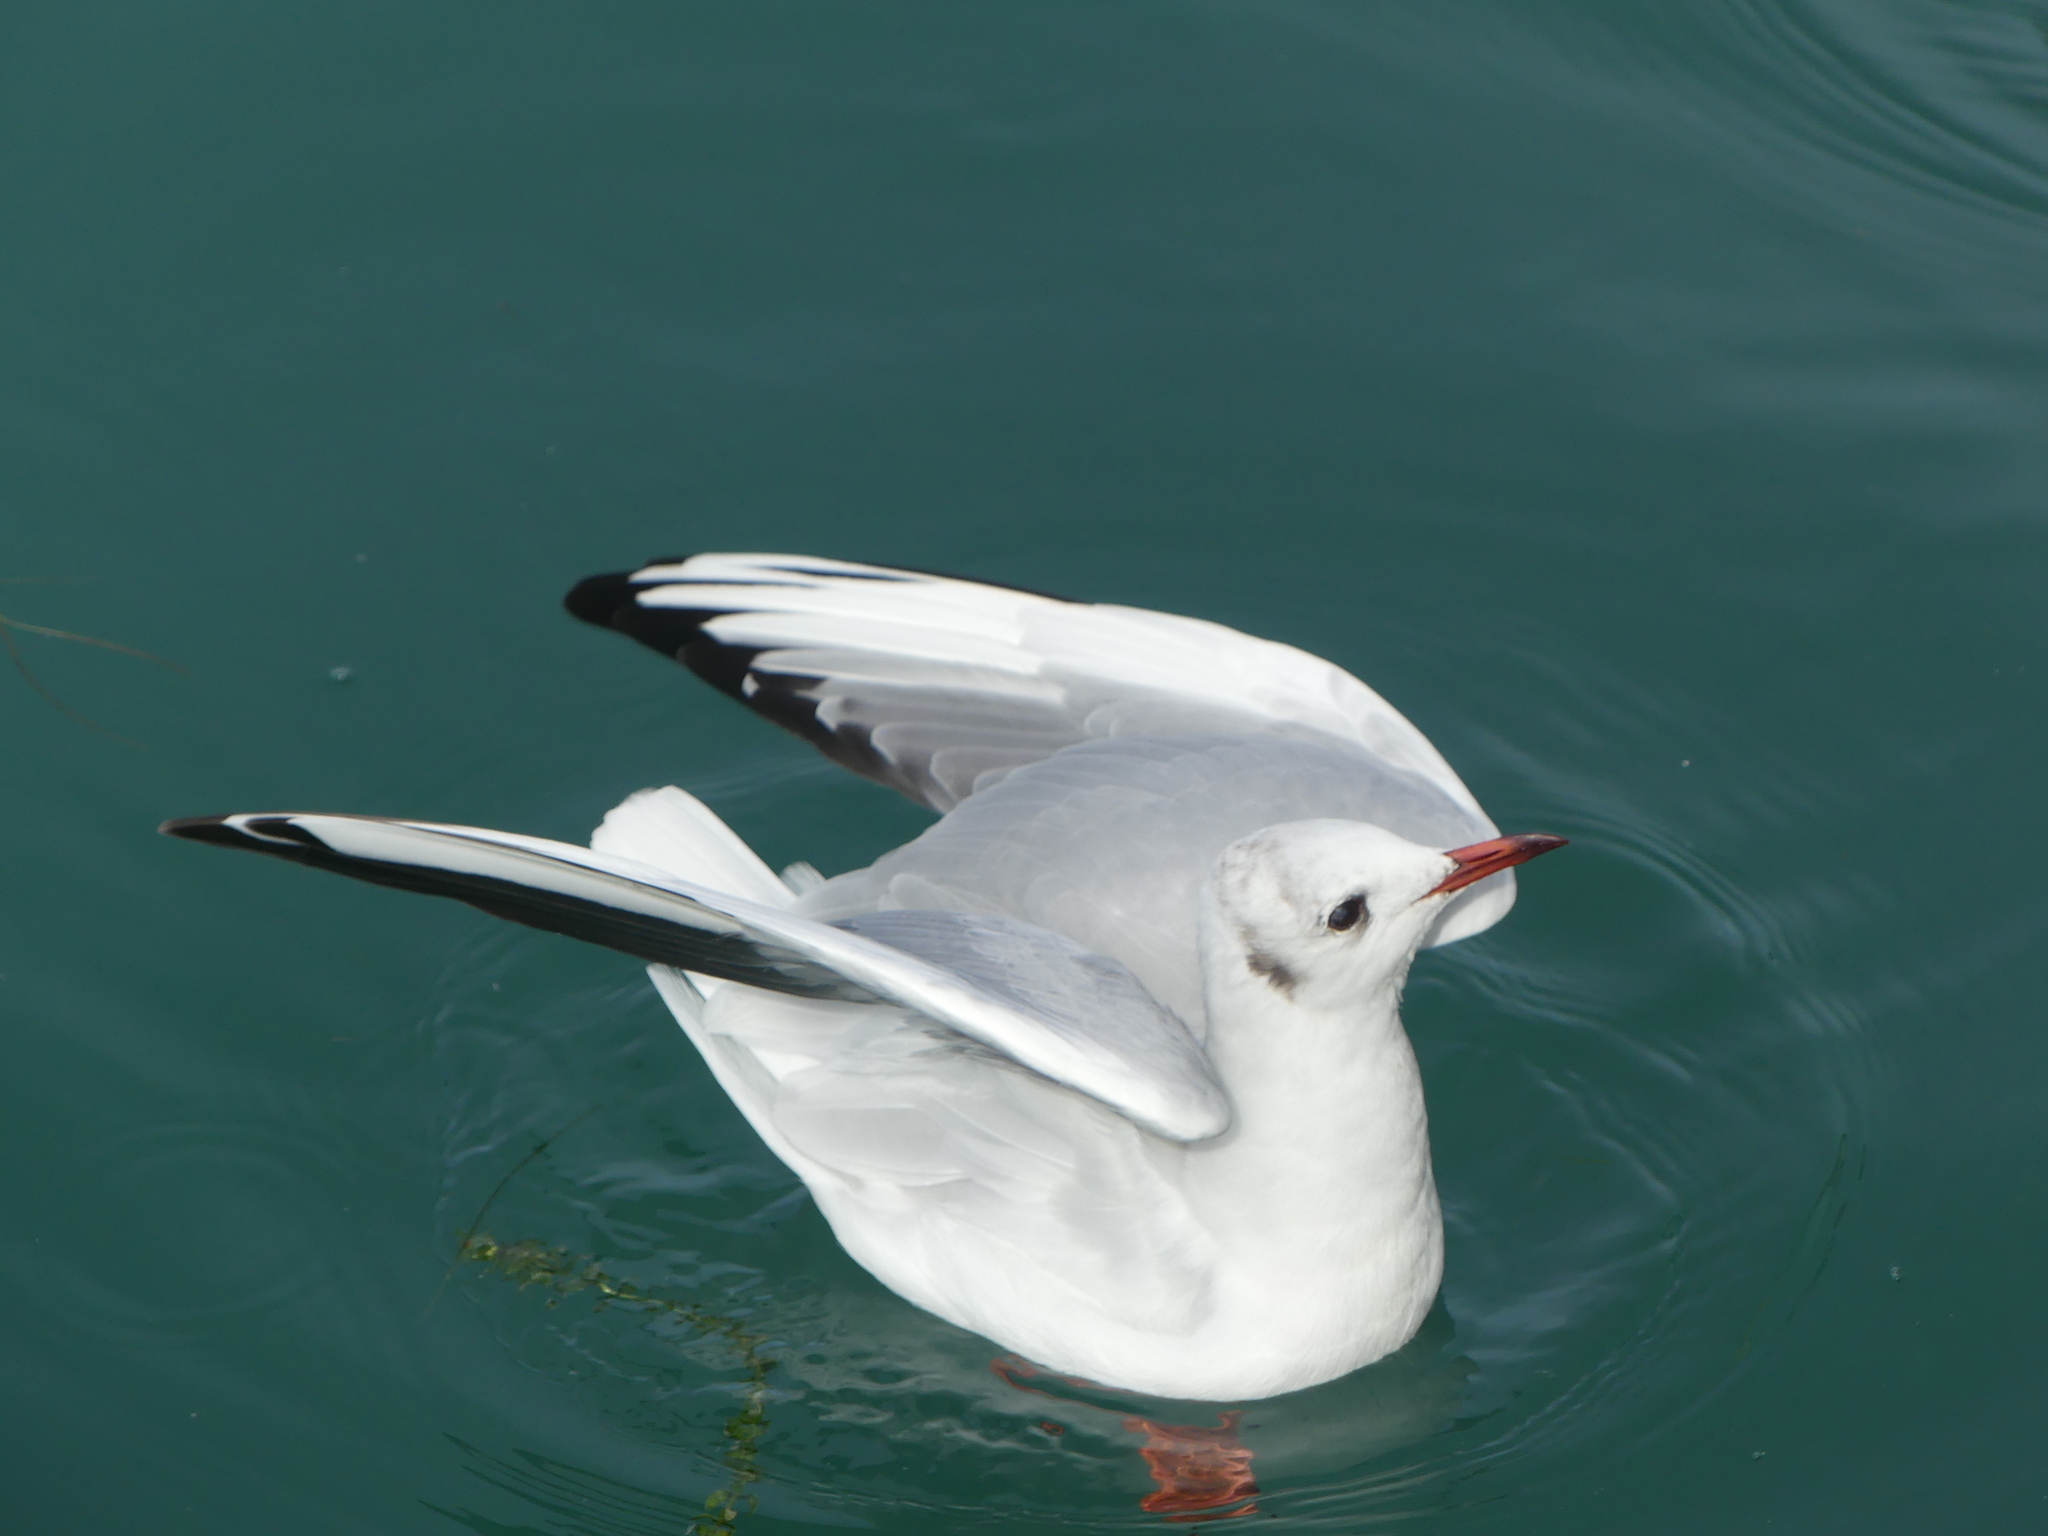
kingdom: Animalia
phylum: Chordata
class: Aves
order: Charadriiformes
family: Laridae
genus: Chroicocephalus
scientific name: Chroicocephalus ridibundus
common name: Black-headed gull
